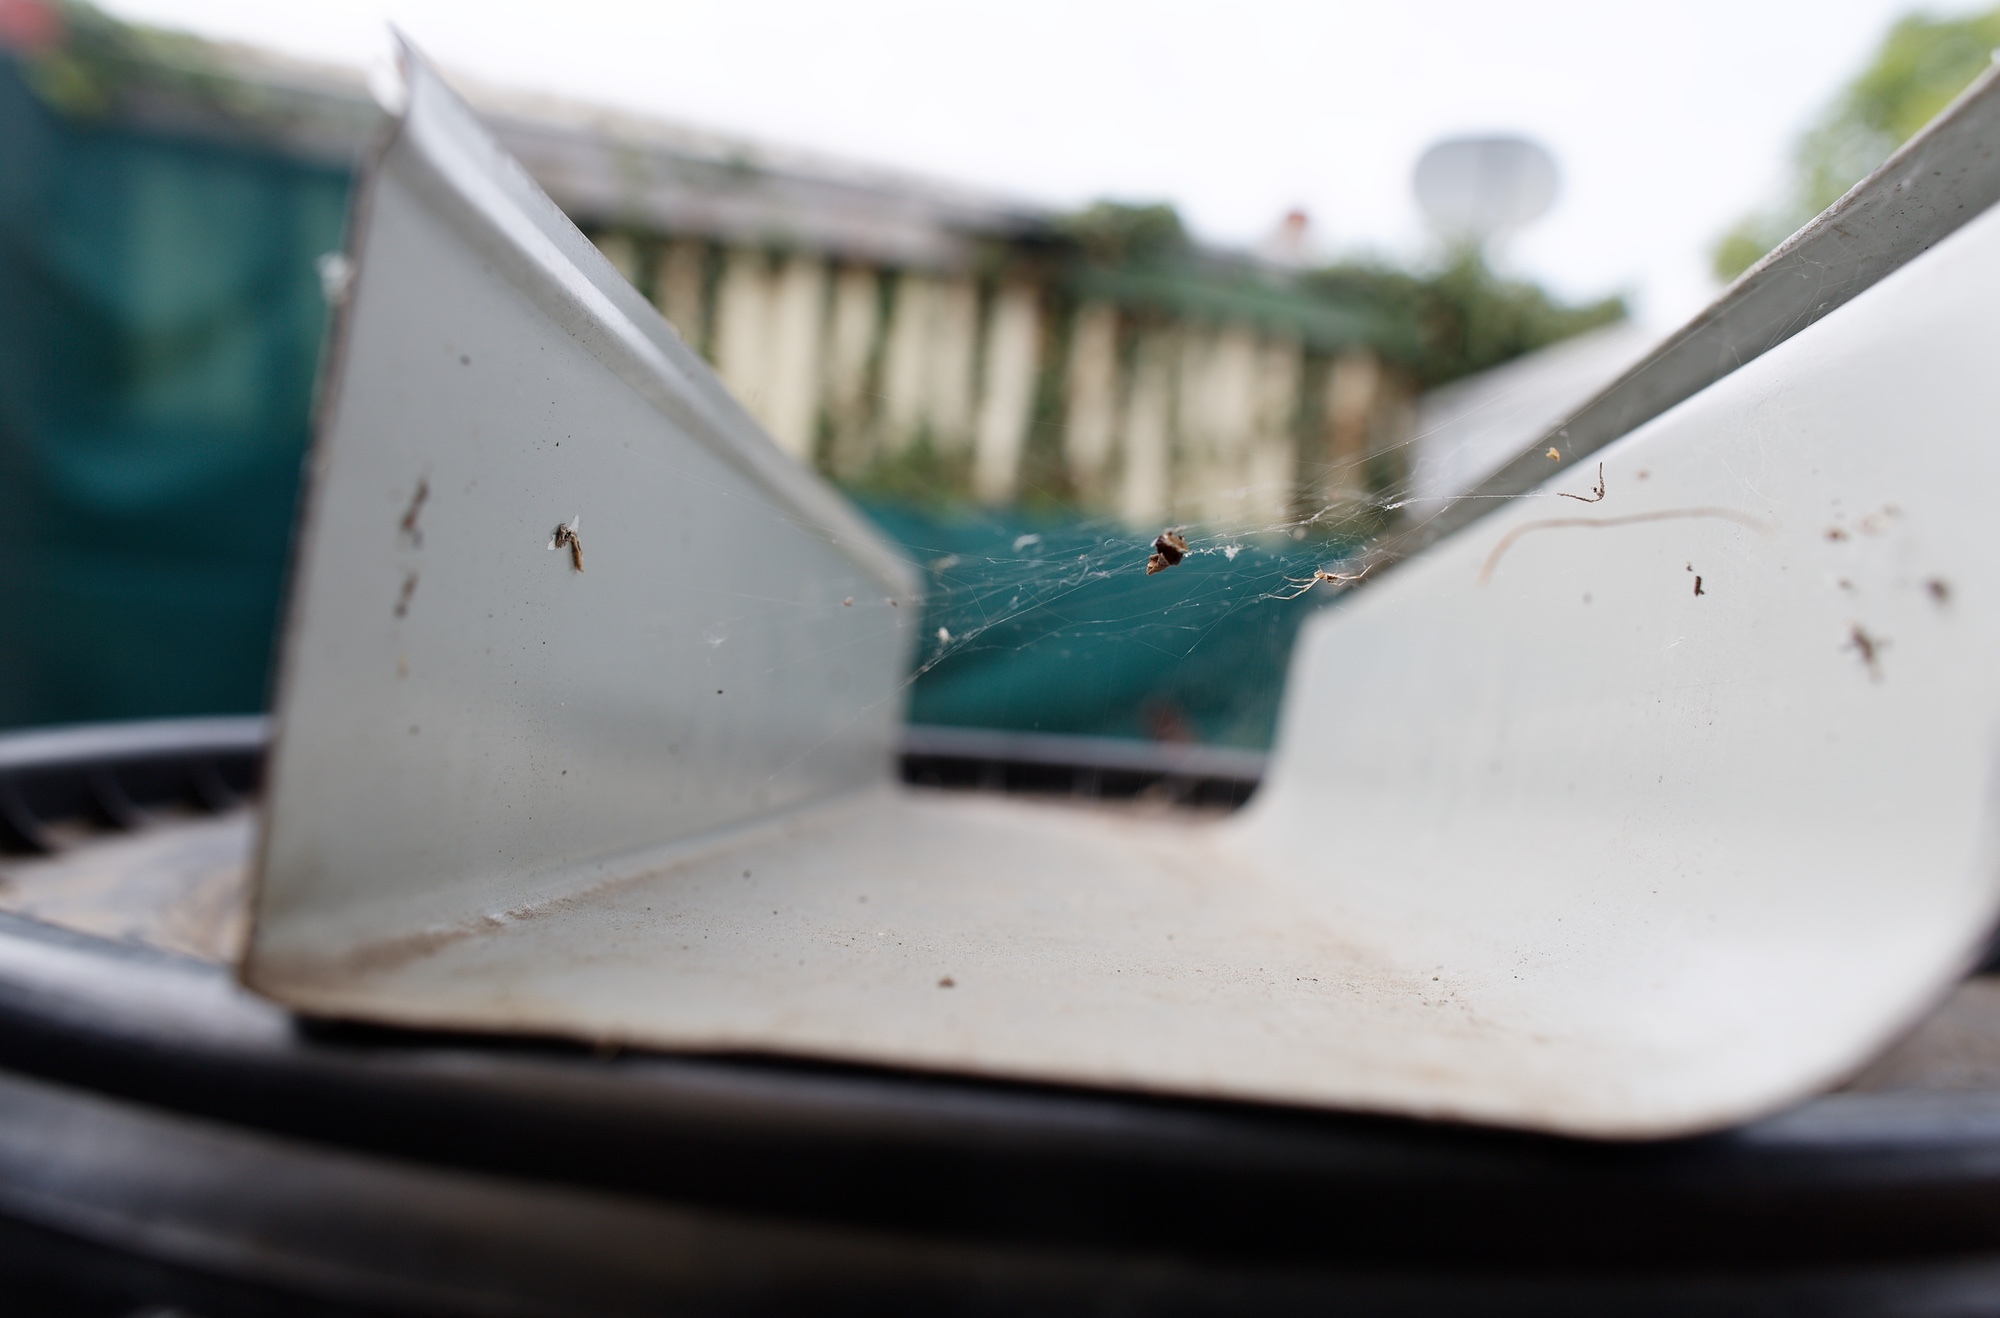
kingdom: Animalia
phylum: Arthropoda
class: Arachnida
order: Araneae
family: Theridiidae
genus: Latrodectus
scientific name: Latrodectus hasselti
